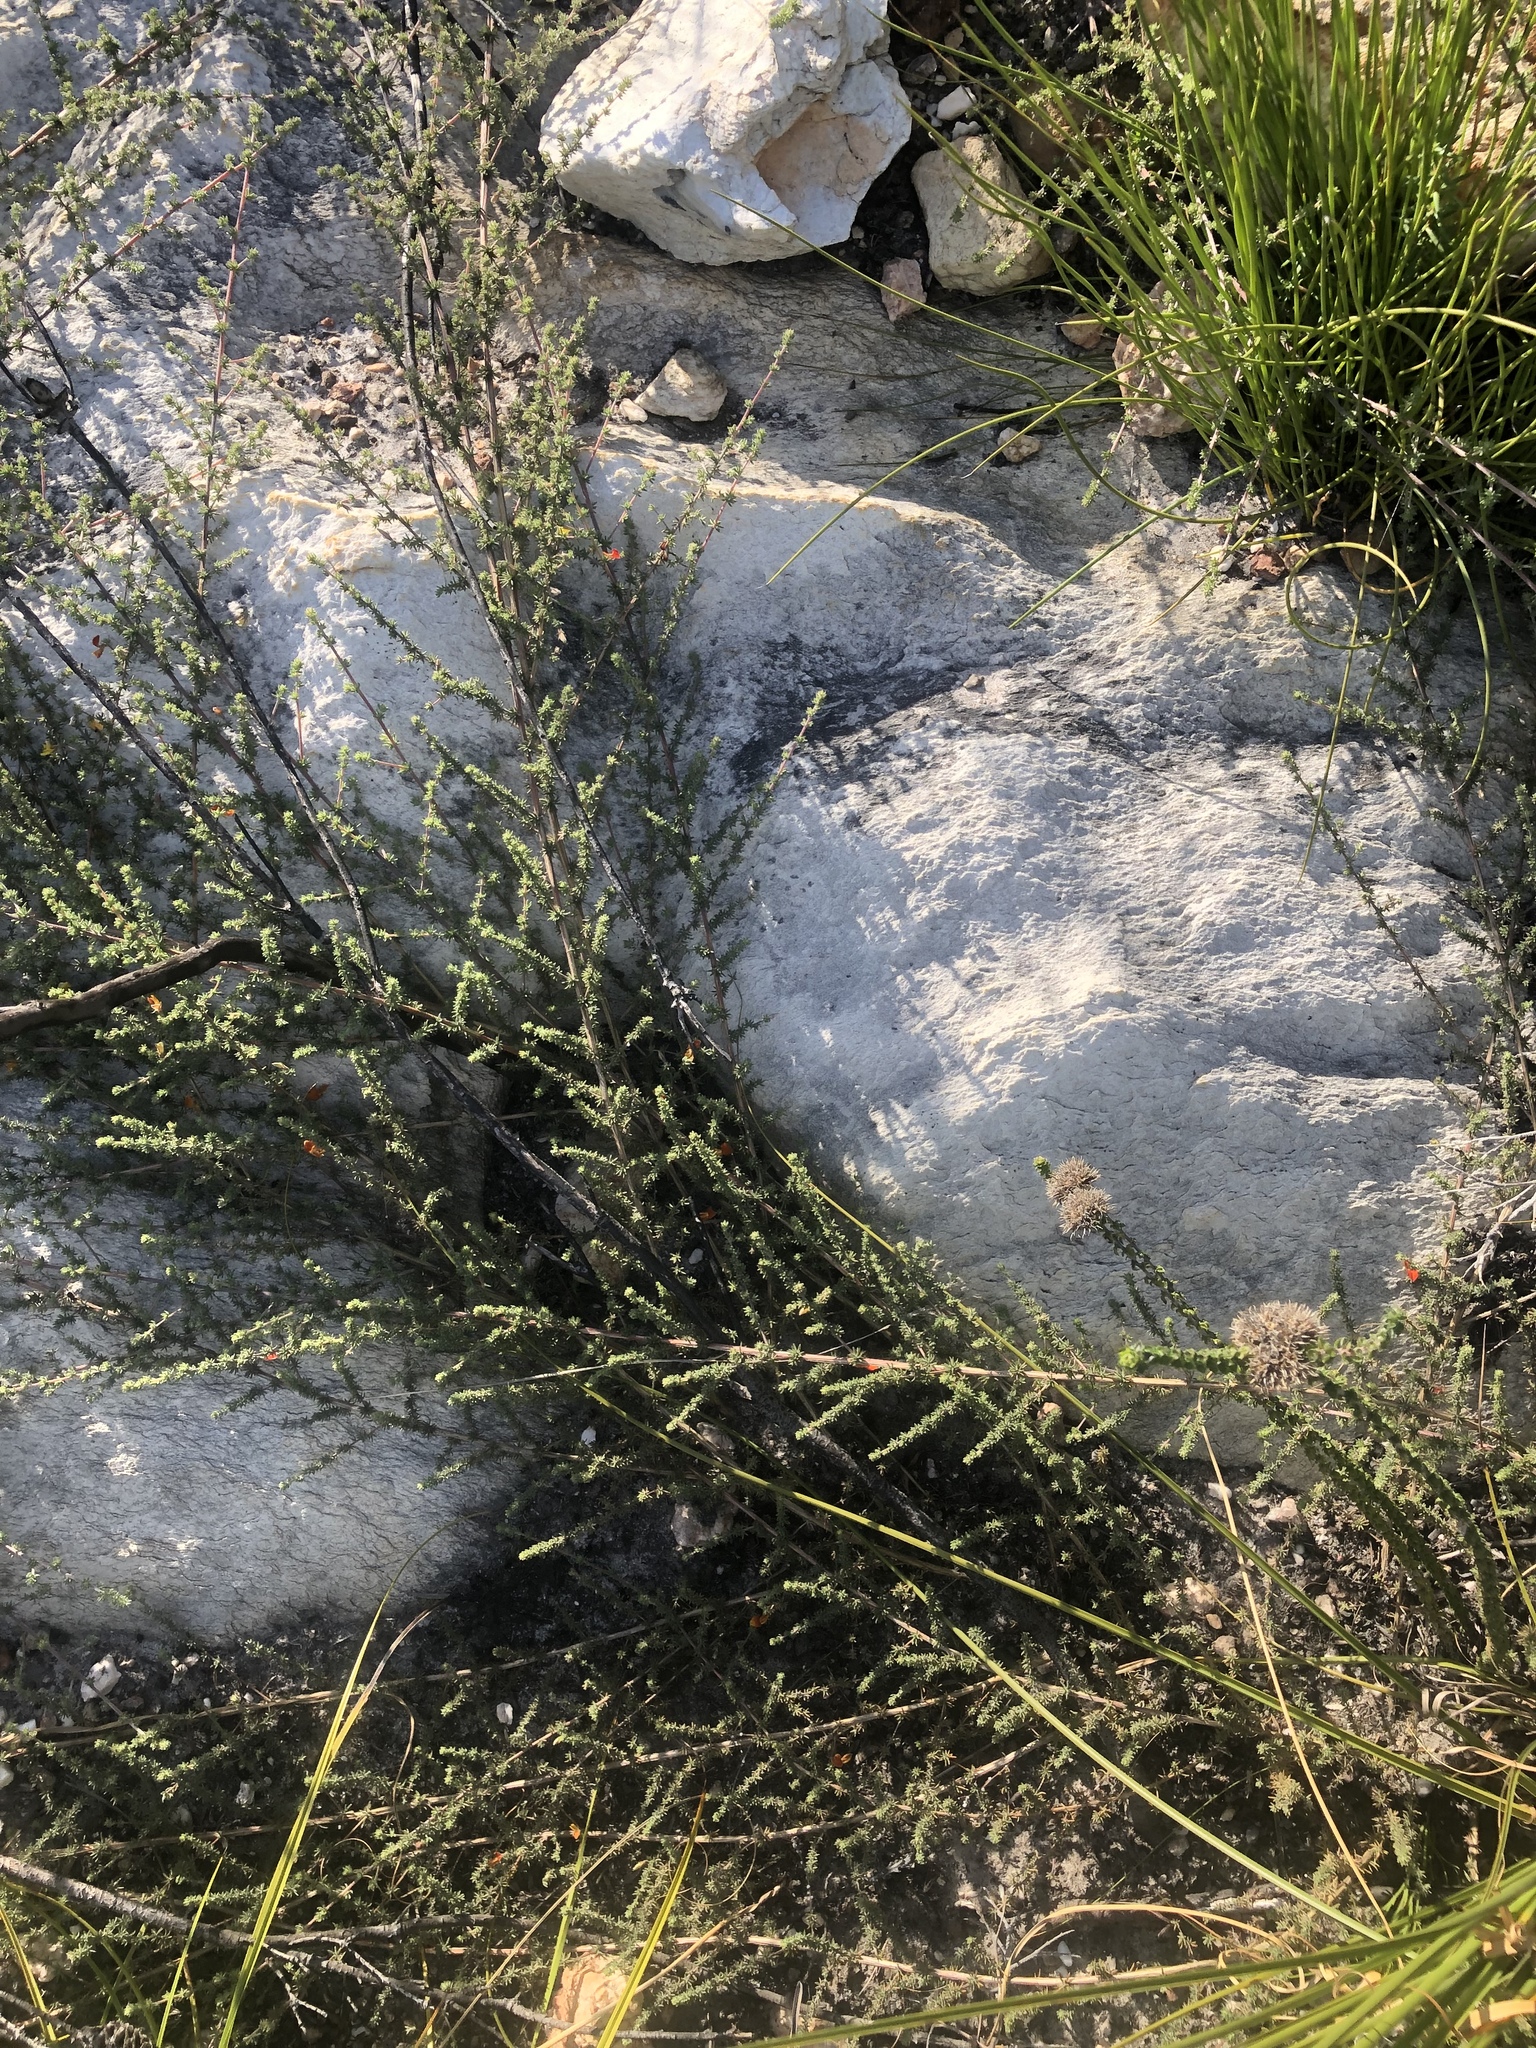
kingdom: Plantae
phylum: Tracheophyta
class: Magnoliopsida
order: Fabales
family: Fabaceae
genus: Aspalathus
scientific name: Aspalathus rubens
